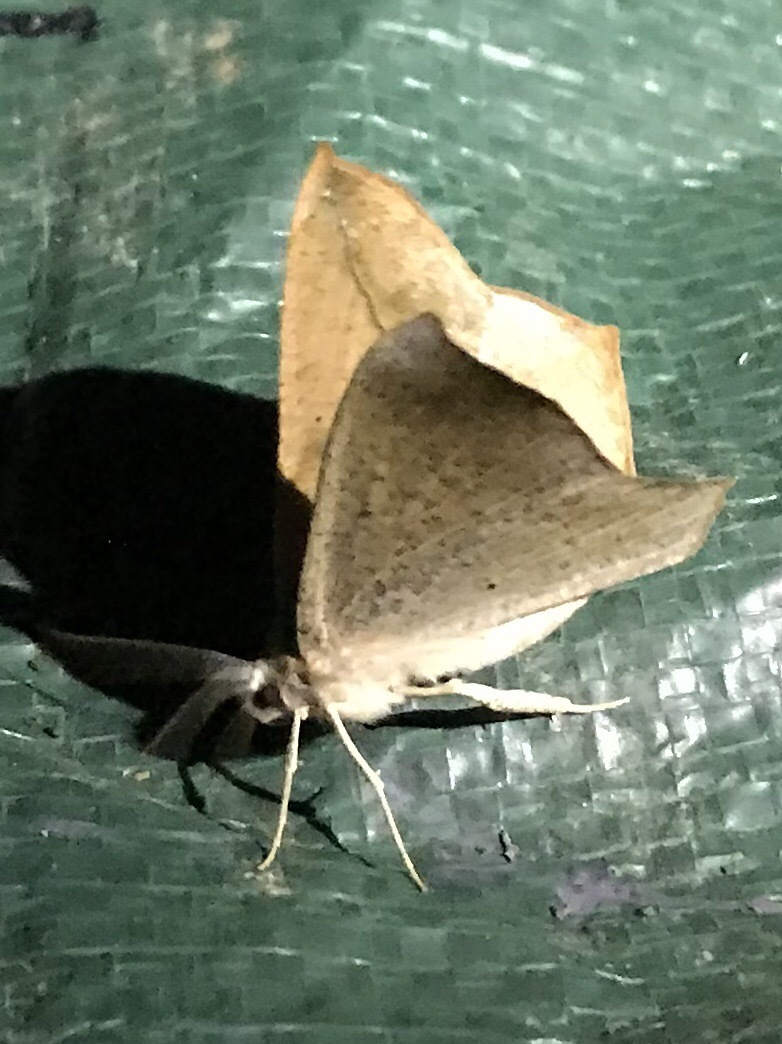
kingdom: Animalia
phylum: Arthropoda
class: Insecta
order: Lepidoptera
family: Geometridae
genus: Prochoerodes
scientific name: Prochoerodes lineola
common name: Large maple spanworm
